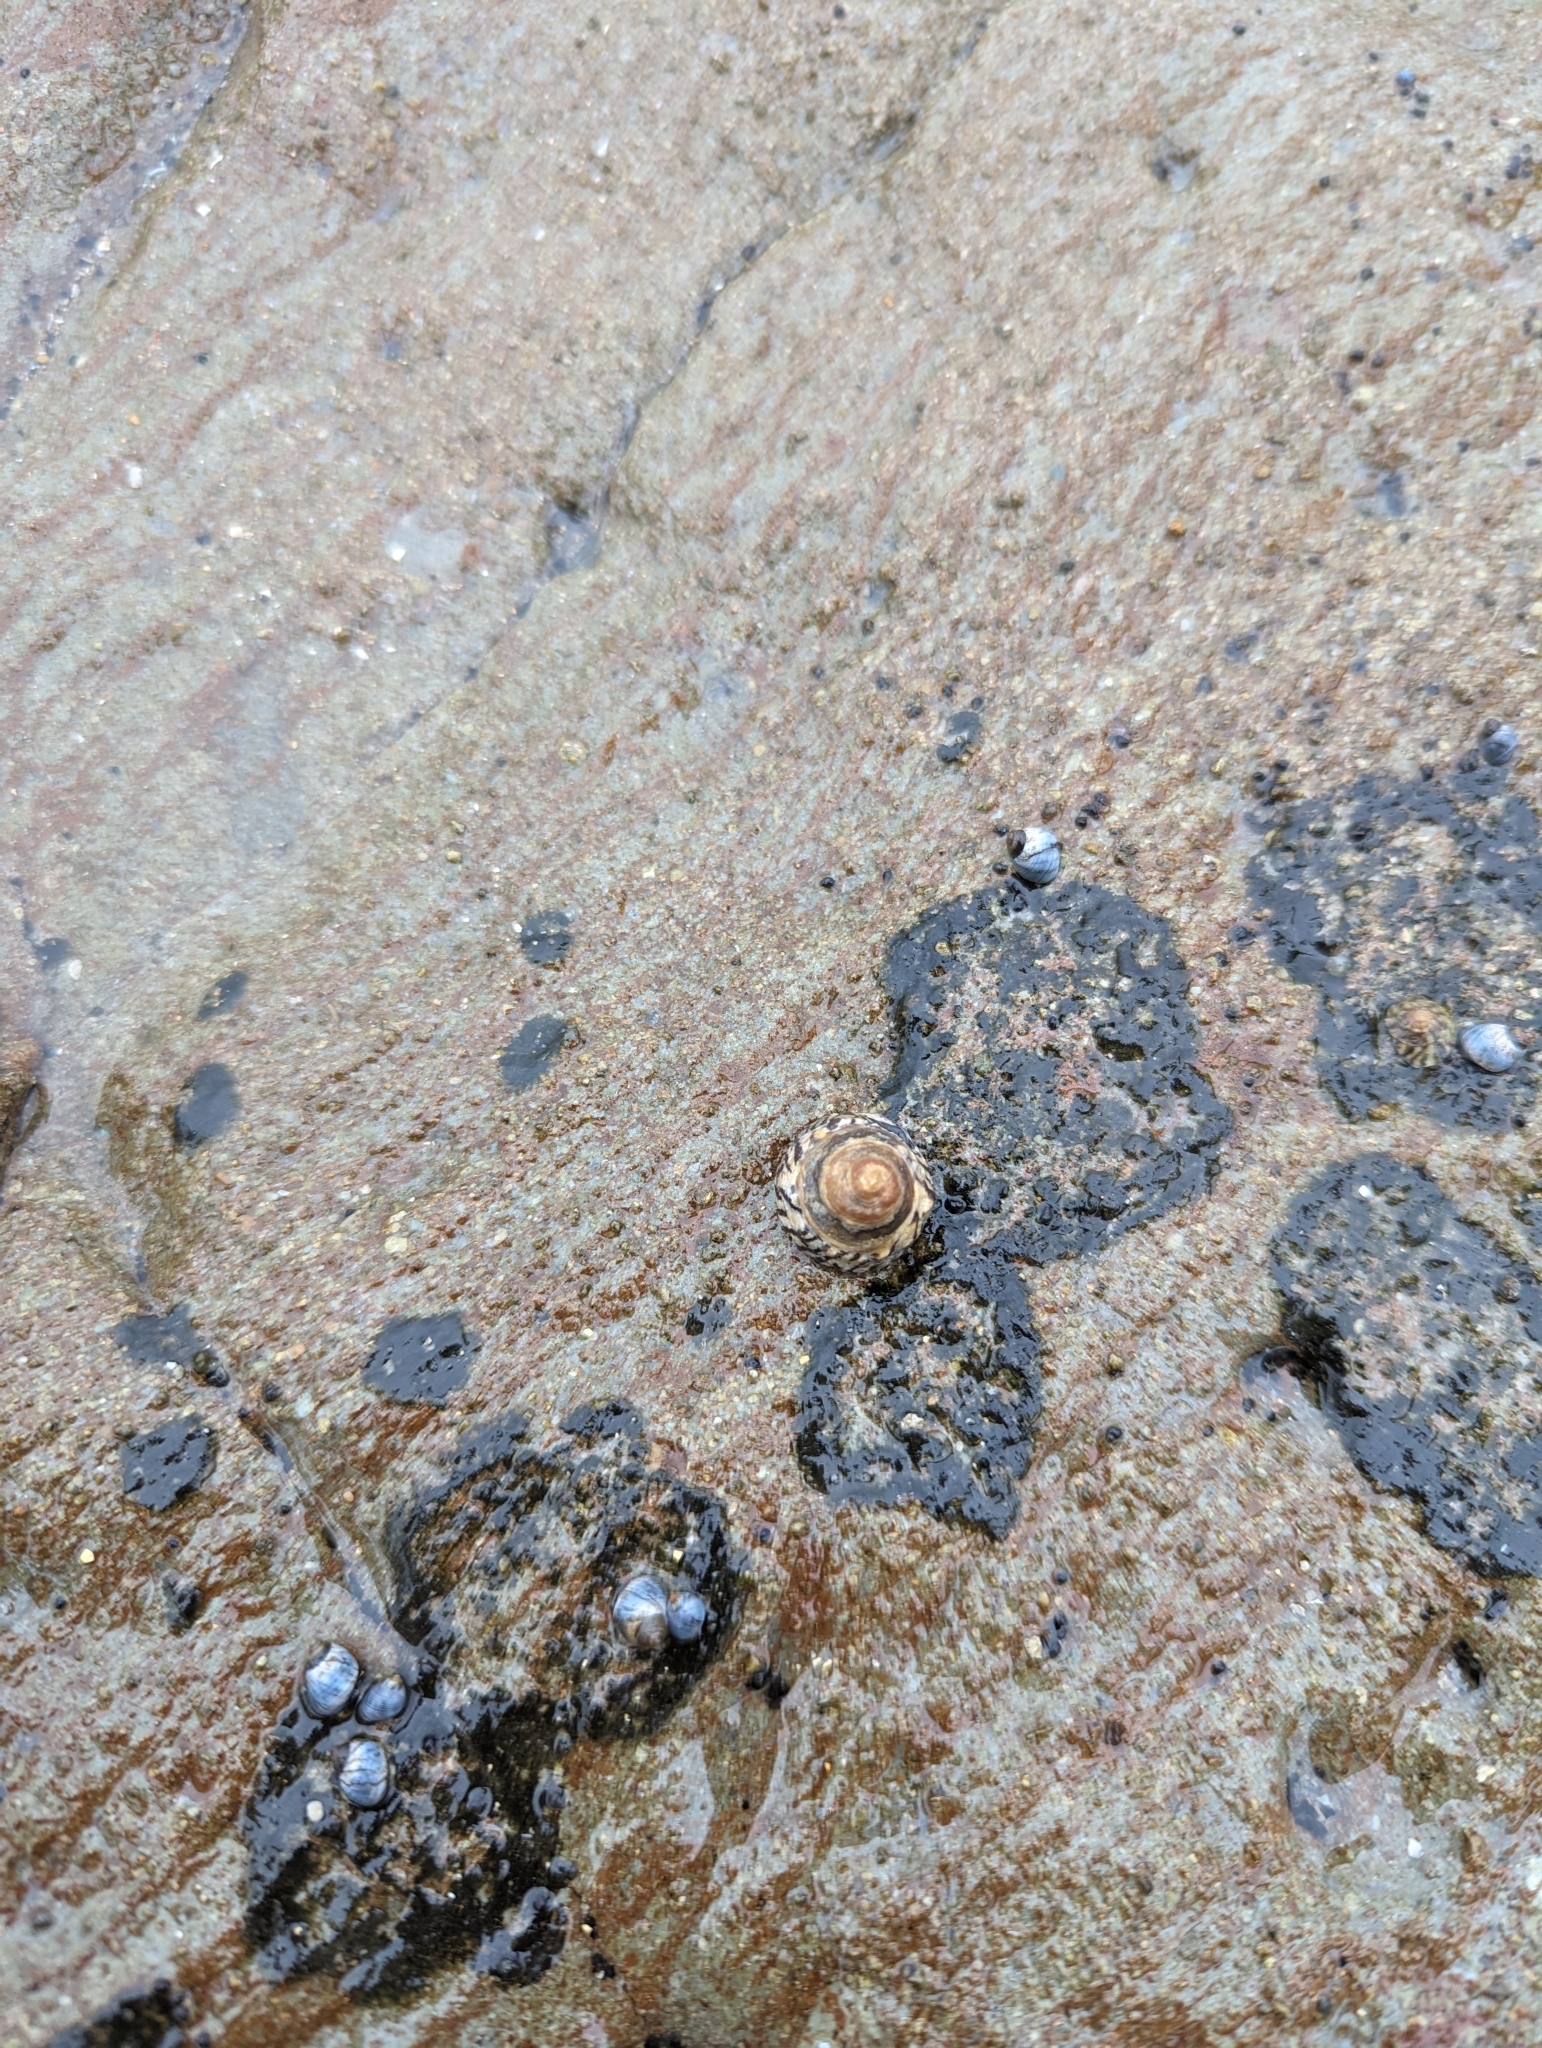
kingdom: Animalia
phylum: Mollusca
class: Gastropoda
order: Littorinimorpha
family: Littorinidae
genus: Bembicium
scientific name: Bembicium nanum
